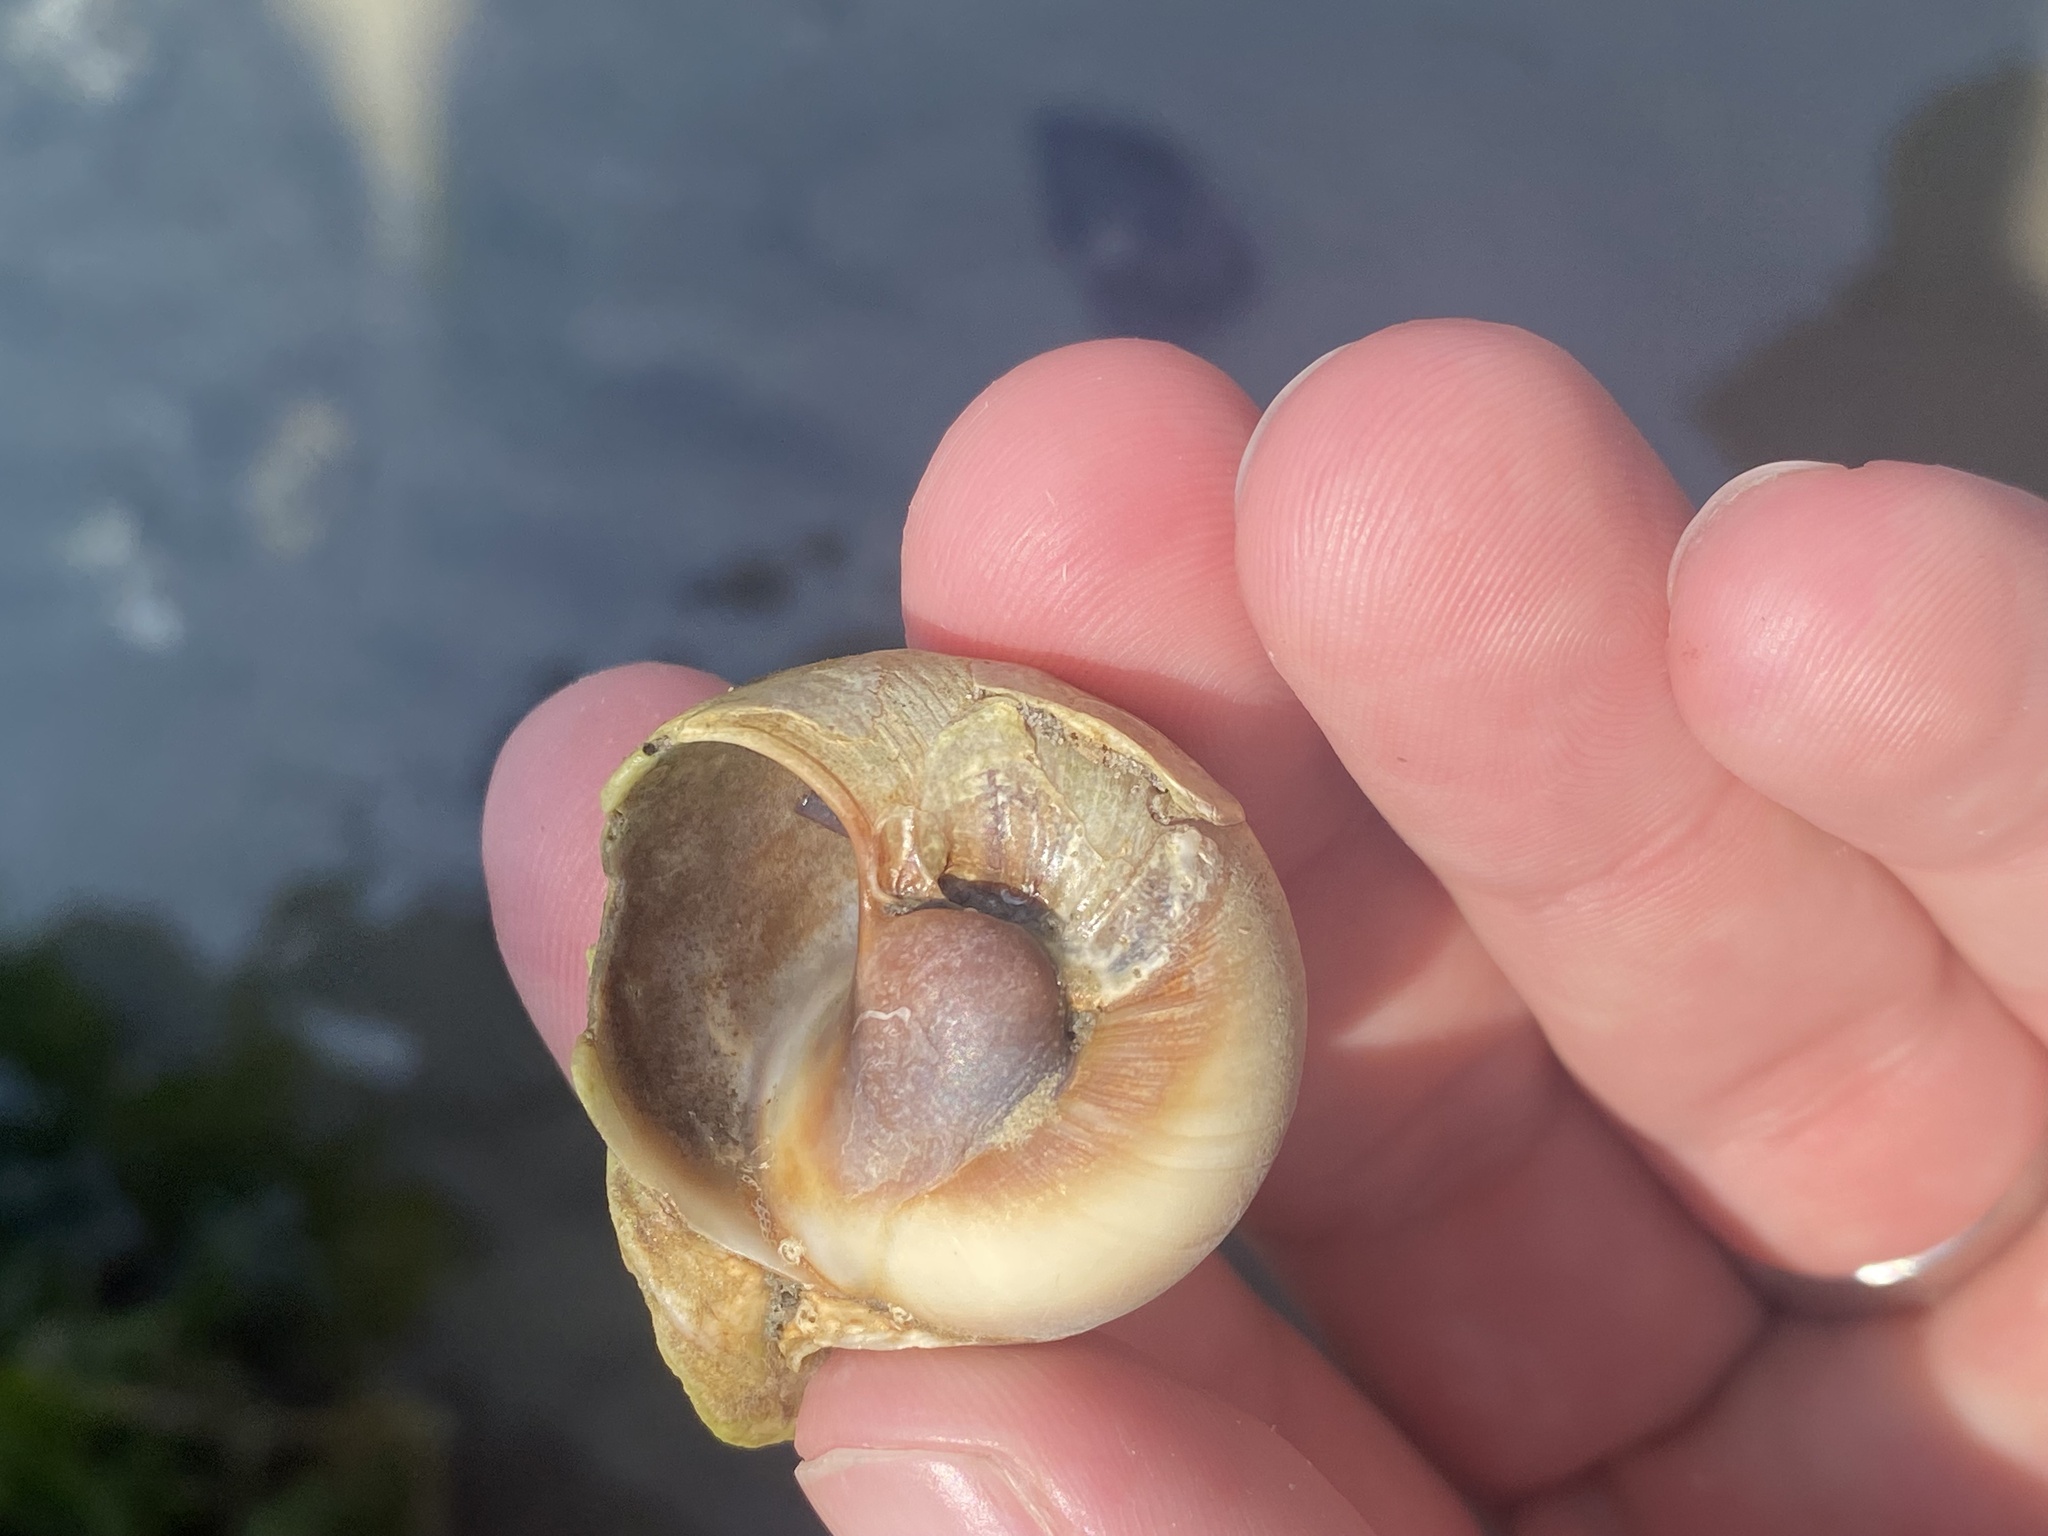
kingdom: Animalia
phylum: Mollusca
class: Gastropoda
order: Littorinimorpha
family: Naticidae
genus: Neverita
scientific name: Neverita duplicata
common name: Lobed moonsnail
